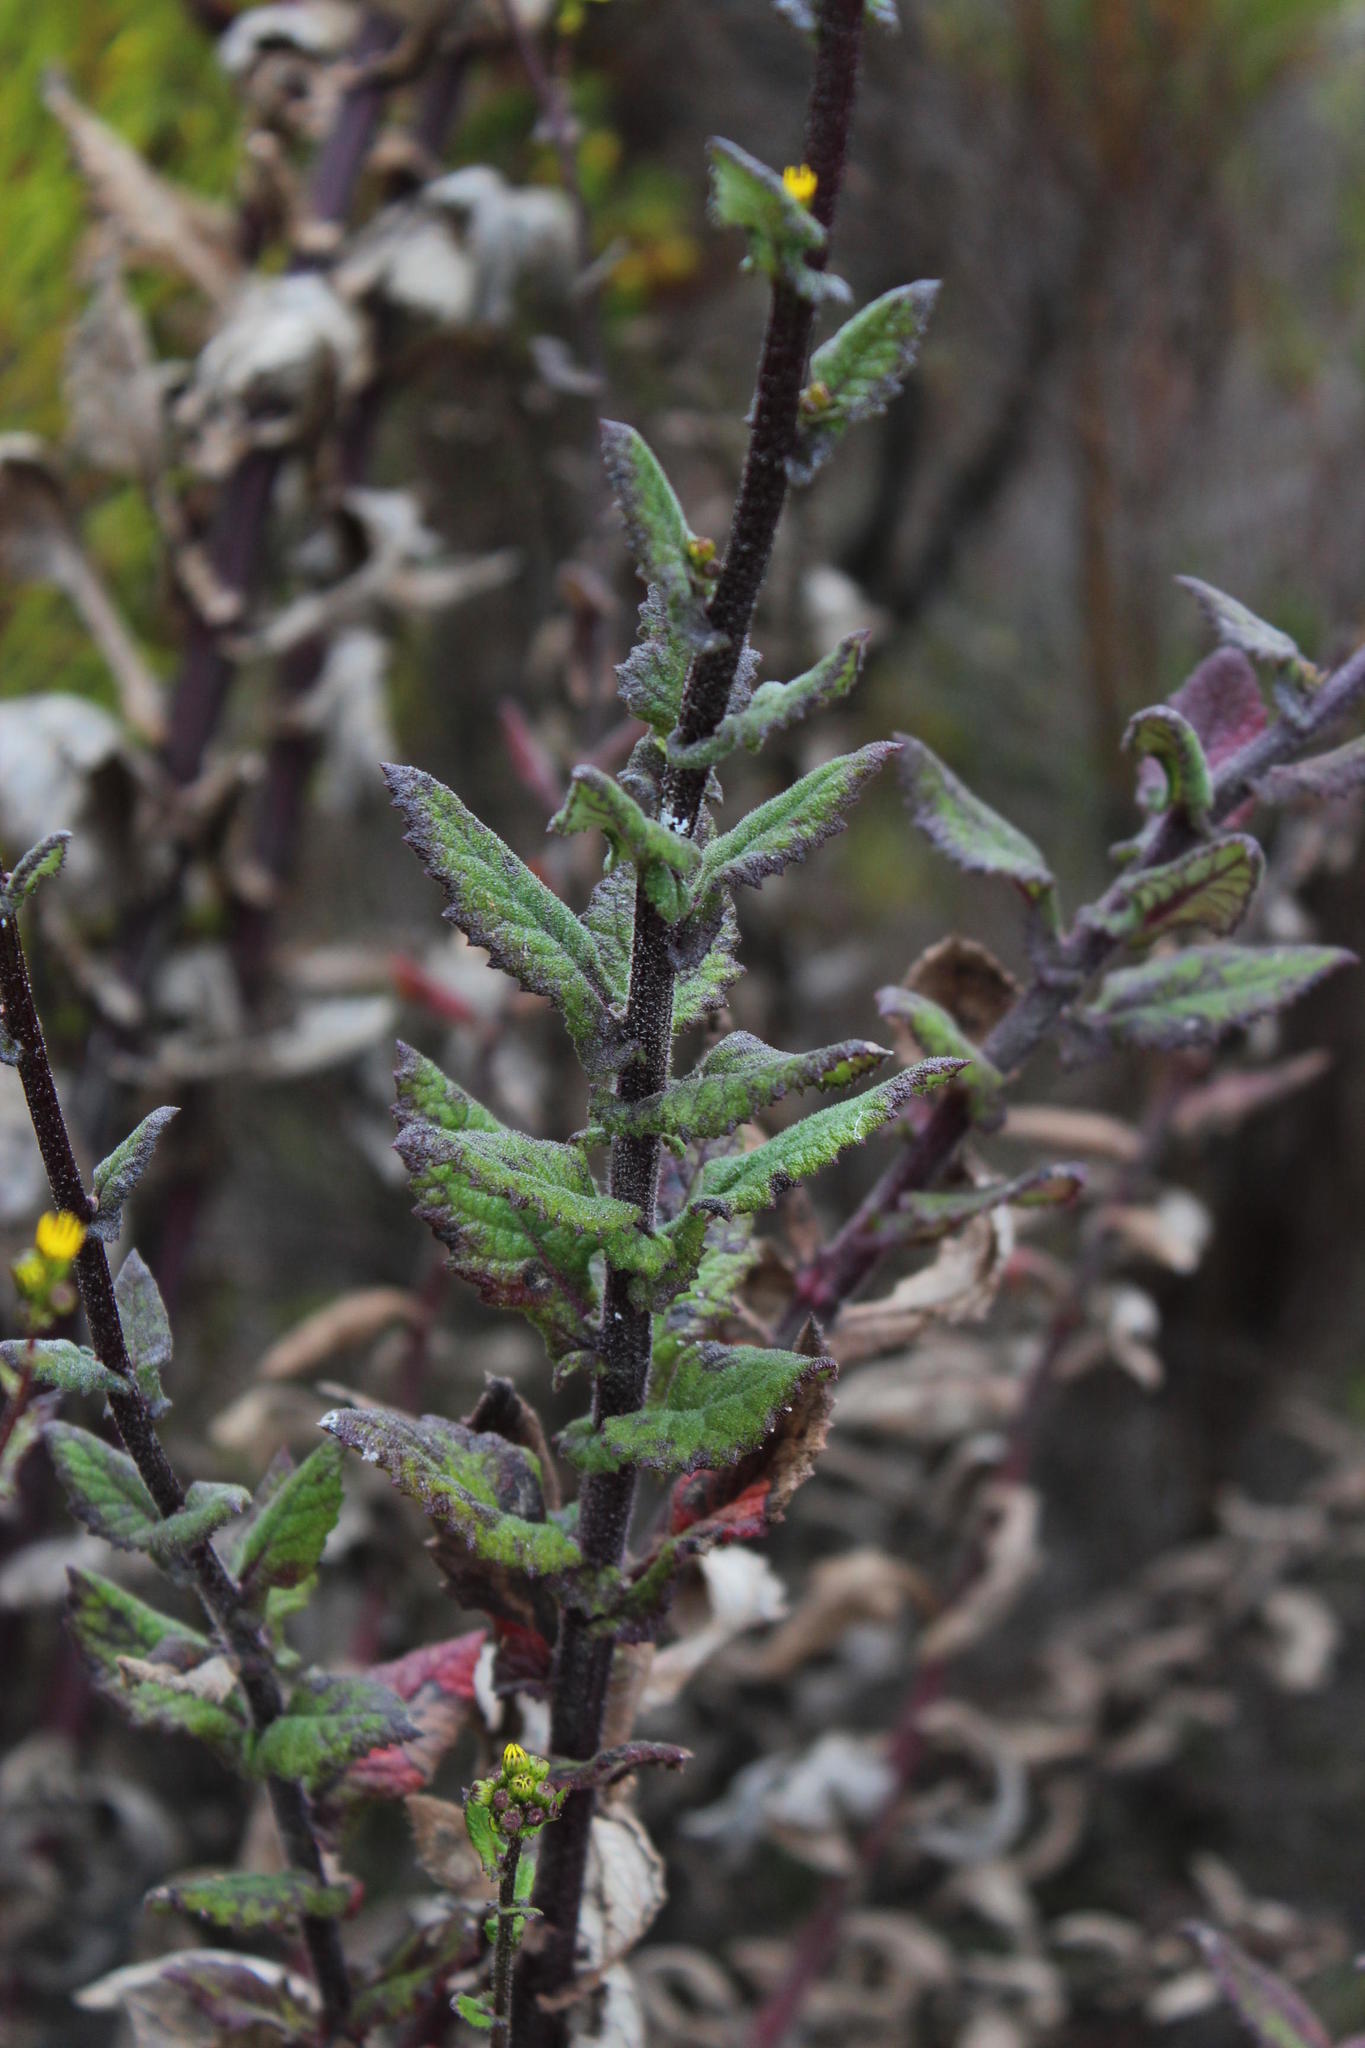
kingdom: Plantae
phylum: Tracheophyta
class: Magnoliopsida
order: Asterales
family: Asteraceae
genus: Senecio
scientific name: Senecio subcanescens
